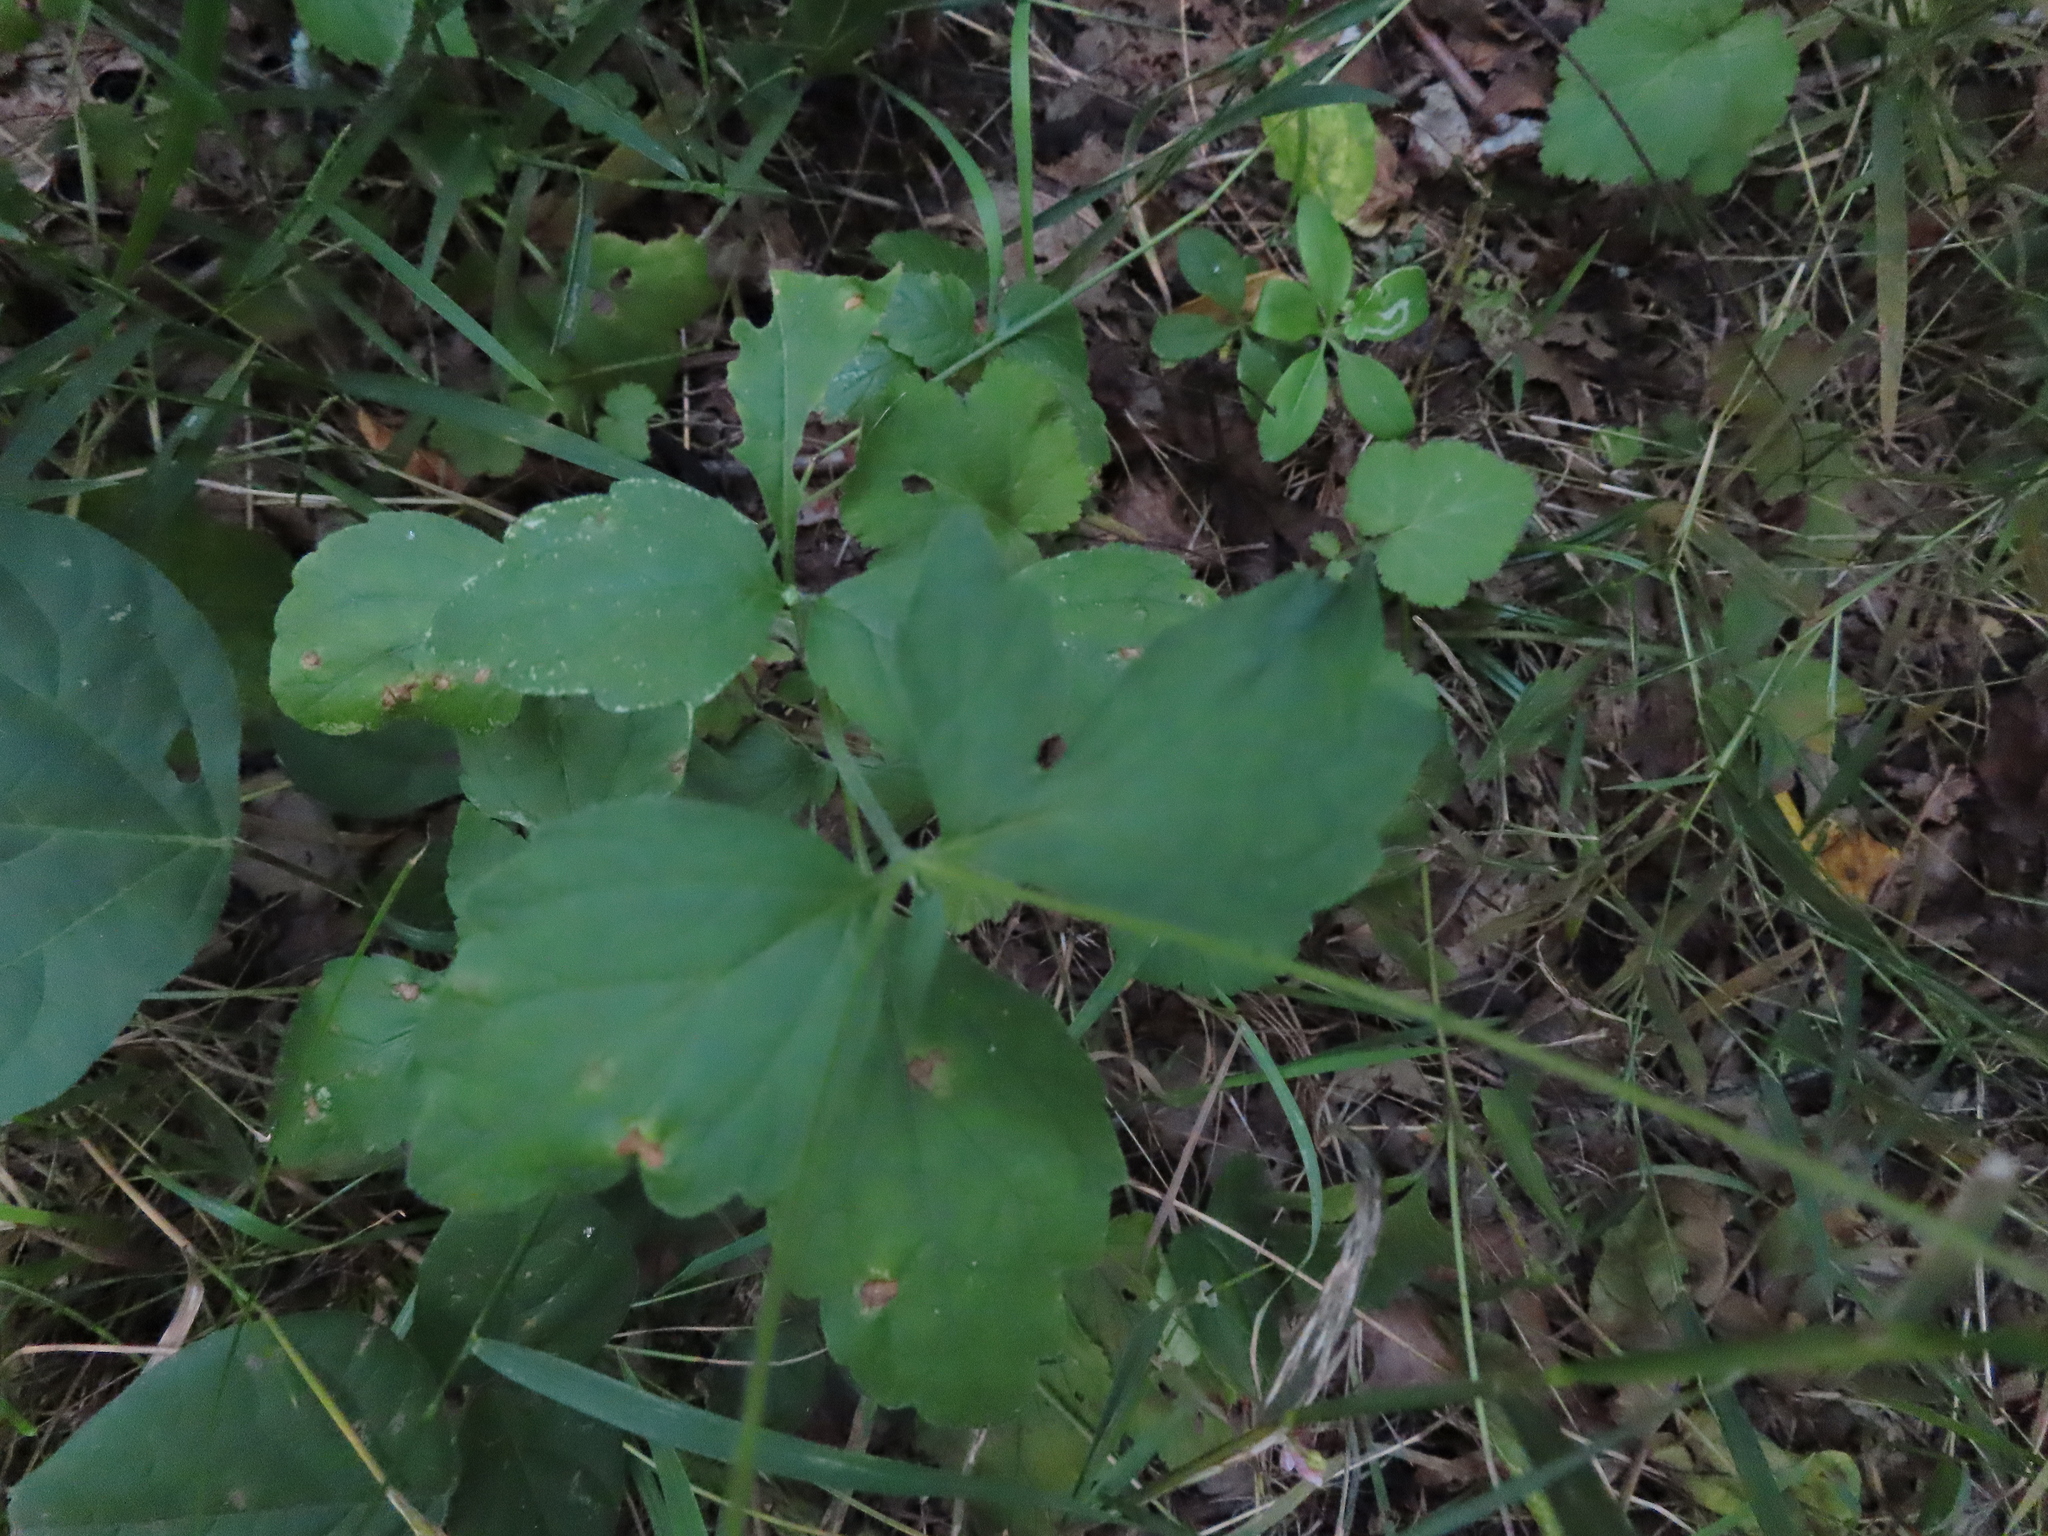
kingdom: Plantae
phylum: Tracheophyta
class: Magnoliopsida
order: Lamiales
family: Phrymaceae
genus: Phryma
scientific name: Phryma leptostachya
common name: American lopseed
